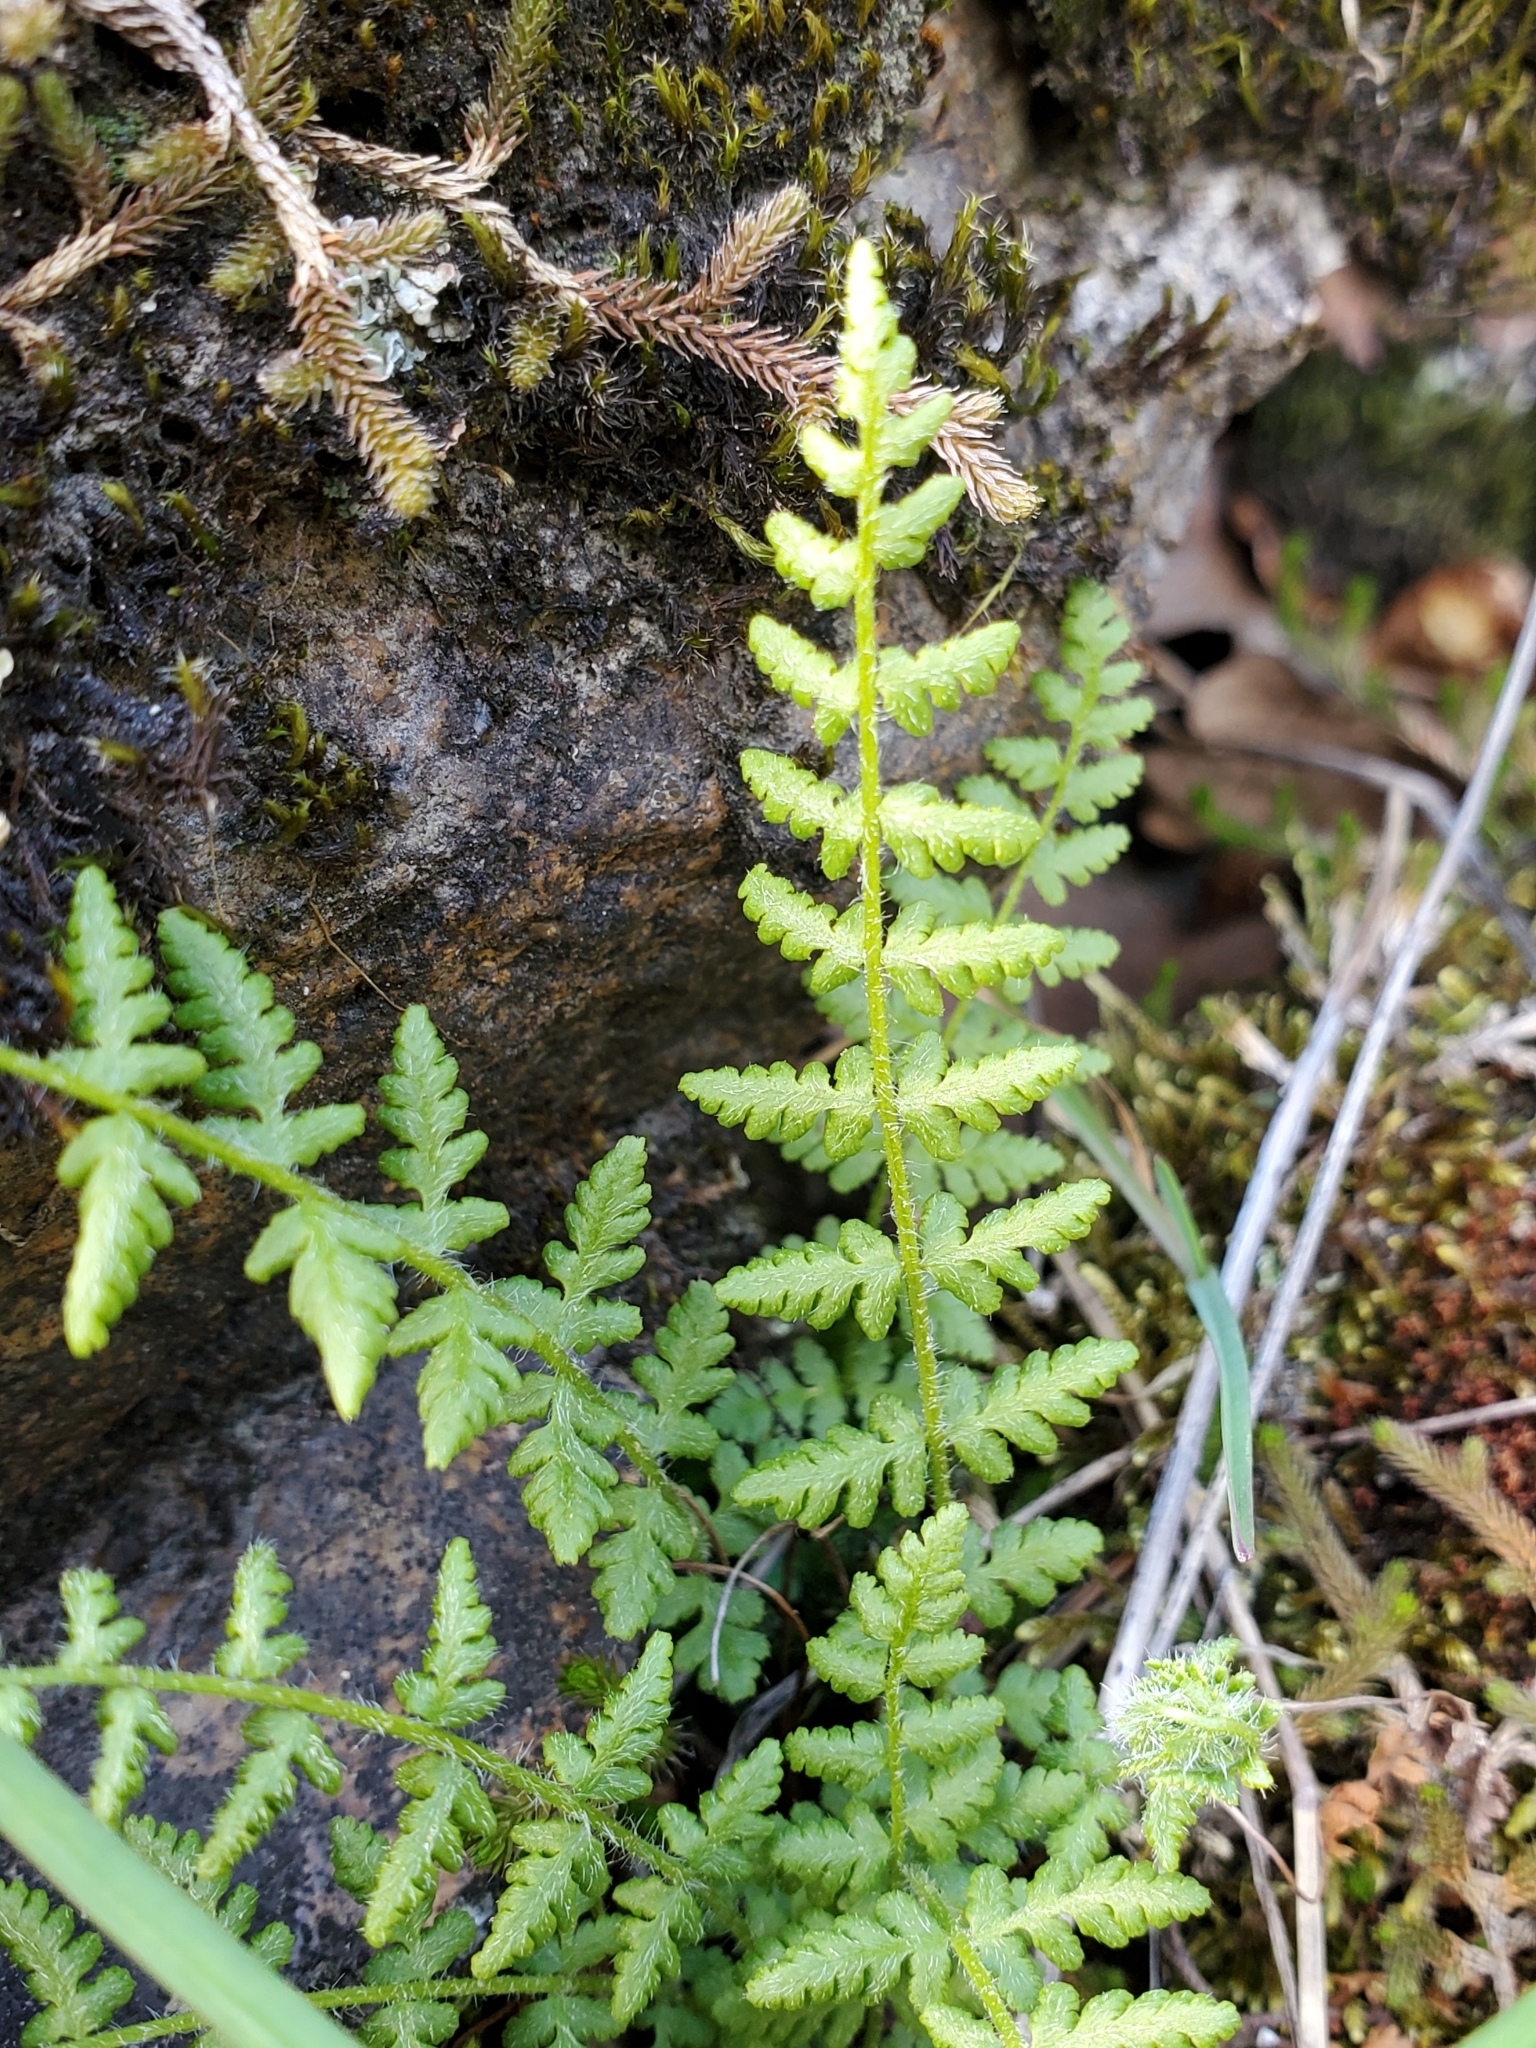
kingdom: Plantae
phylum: Tracheophyta
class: Polypodiopsida
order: Polypodiales
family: Woodsiaceae
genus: Physematium
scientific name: Physematium scopulinum
